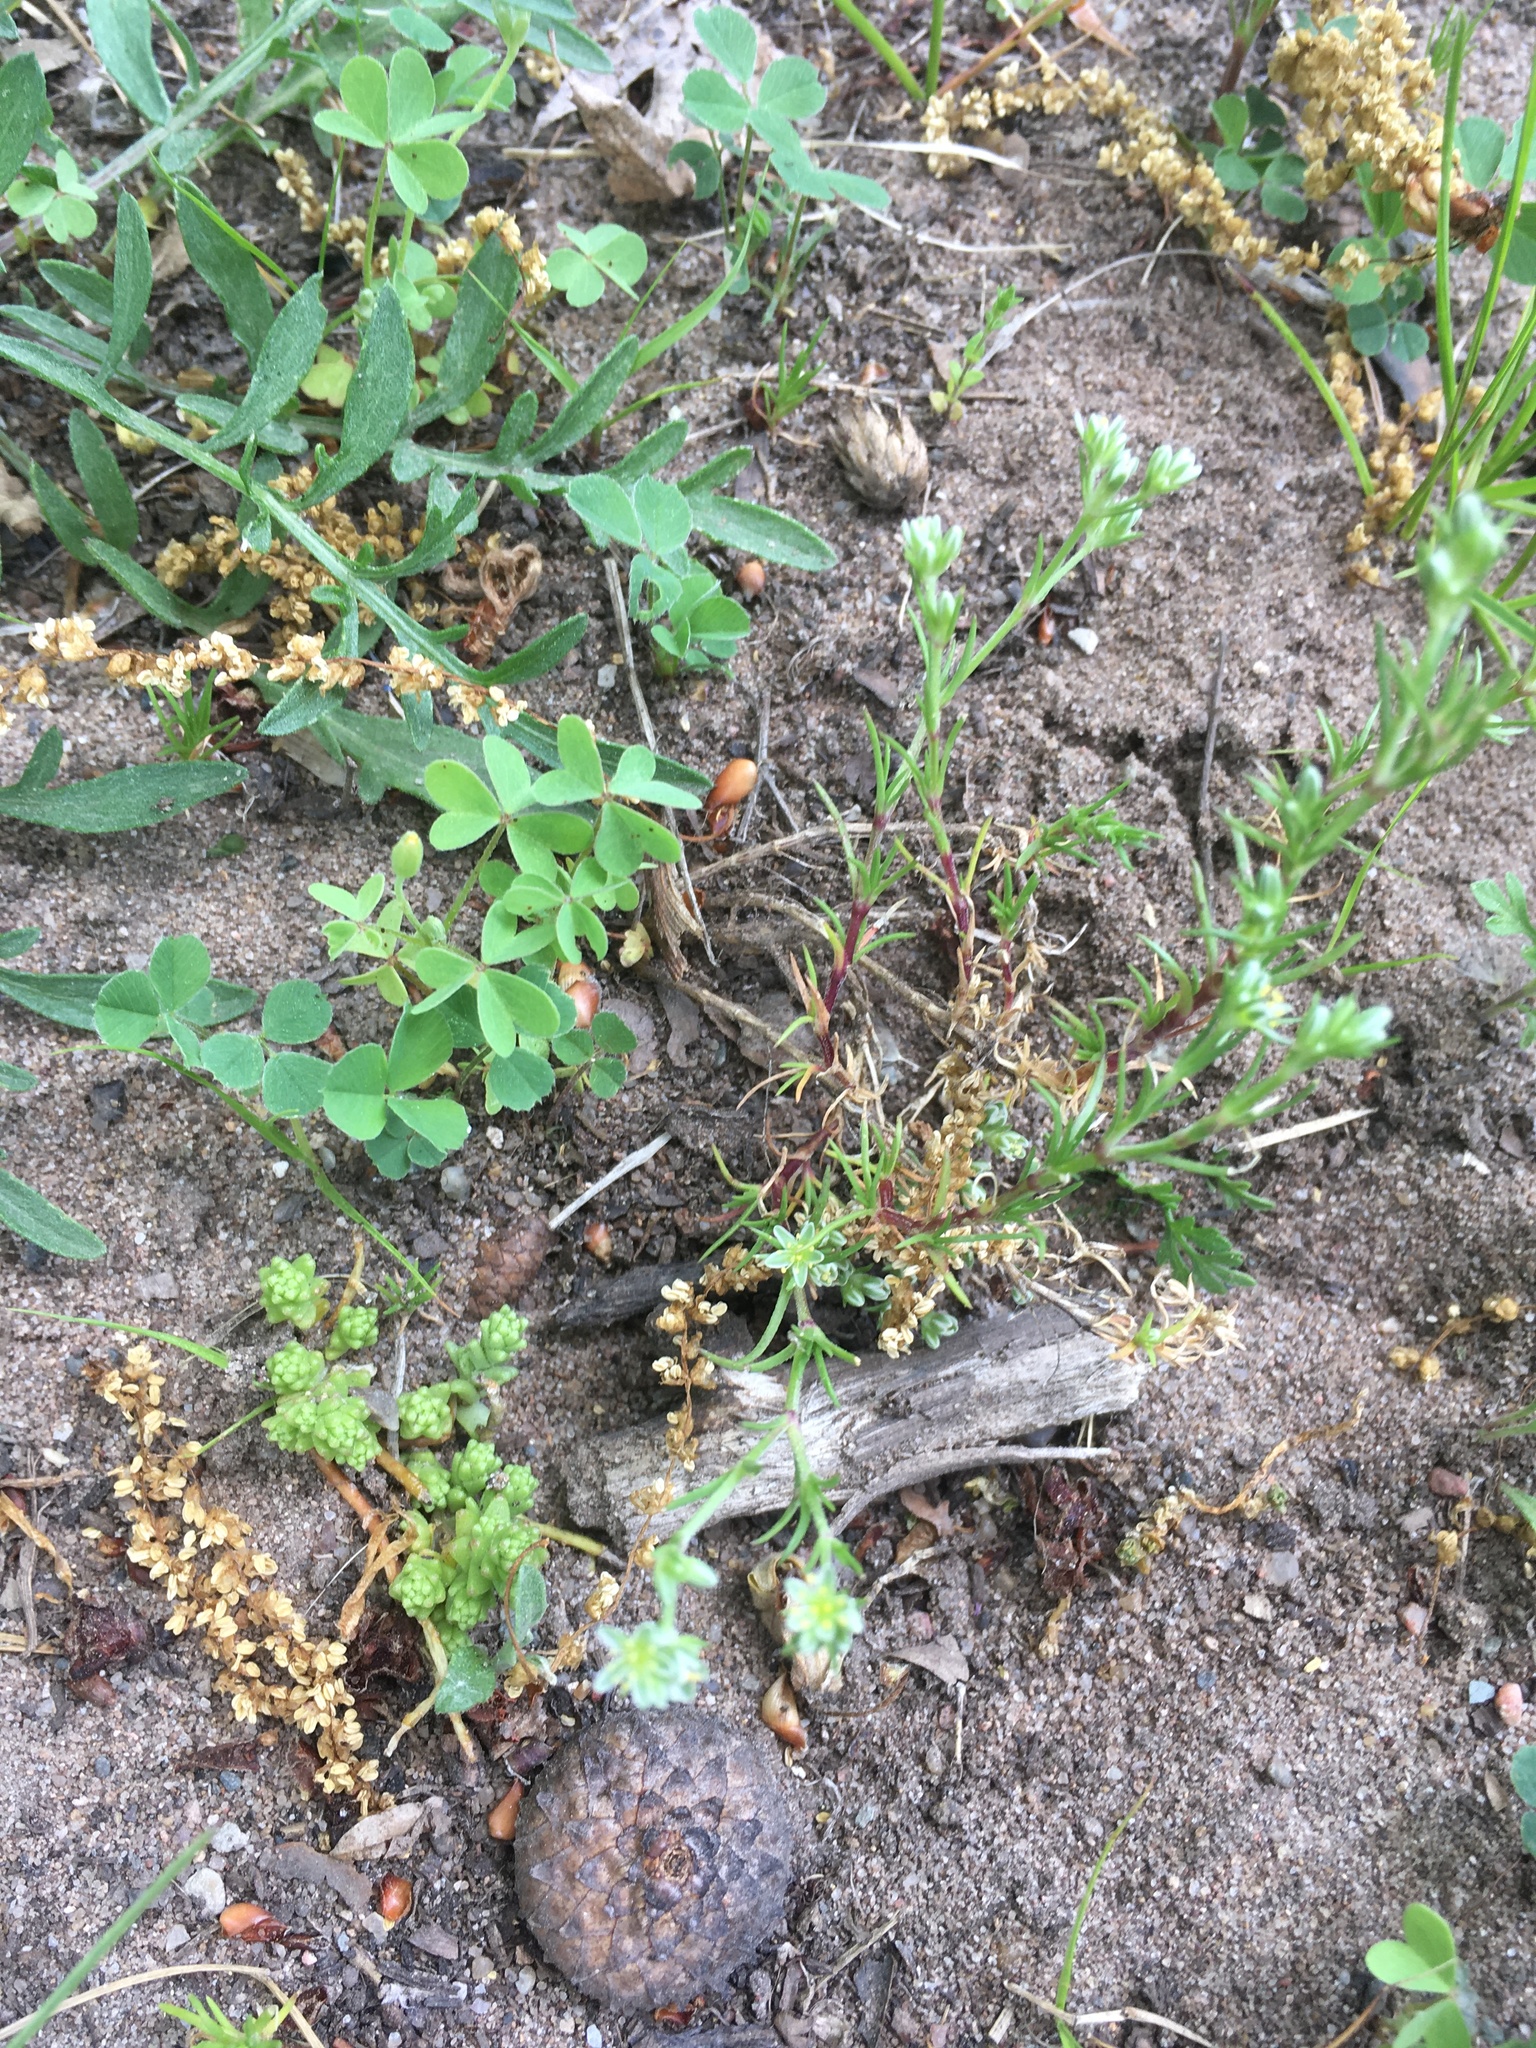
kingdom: Plantae
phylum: Tracheophyta
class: Magnoliopsida
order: Caryophyllales
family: Caryophyllaceae
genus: Scleranthus
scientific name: Scleranthus perennis
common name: Perennial knawel
